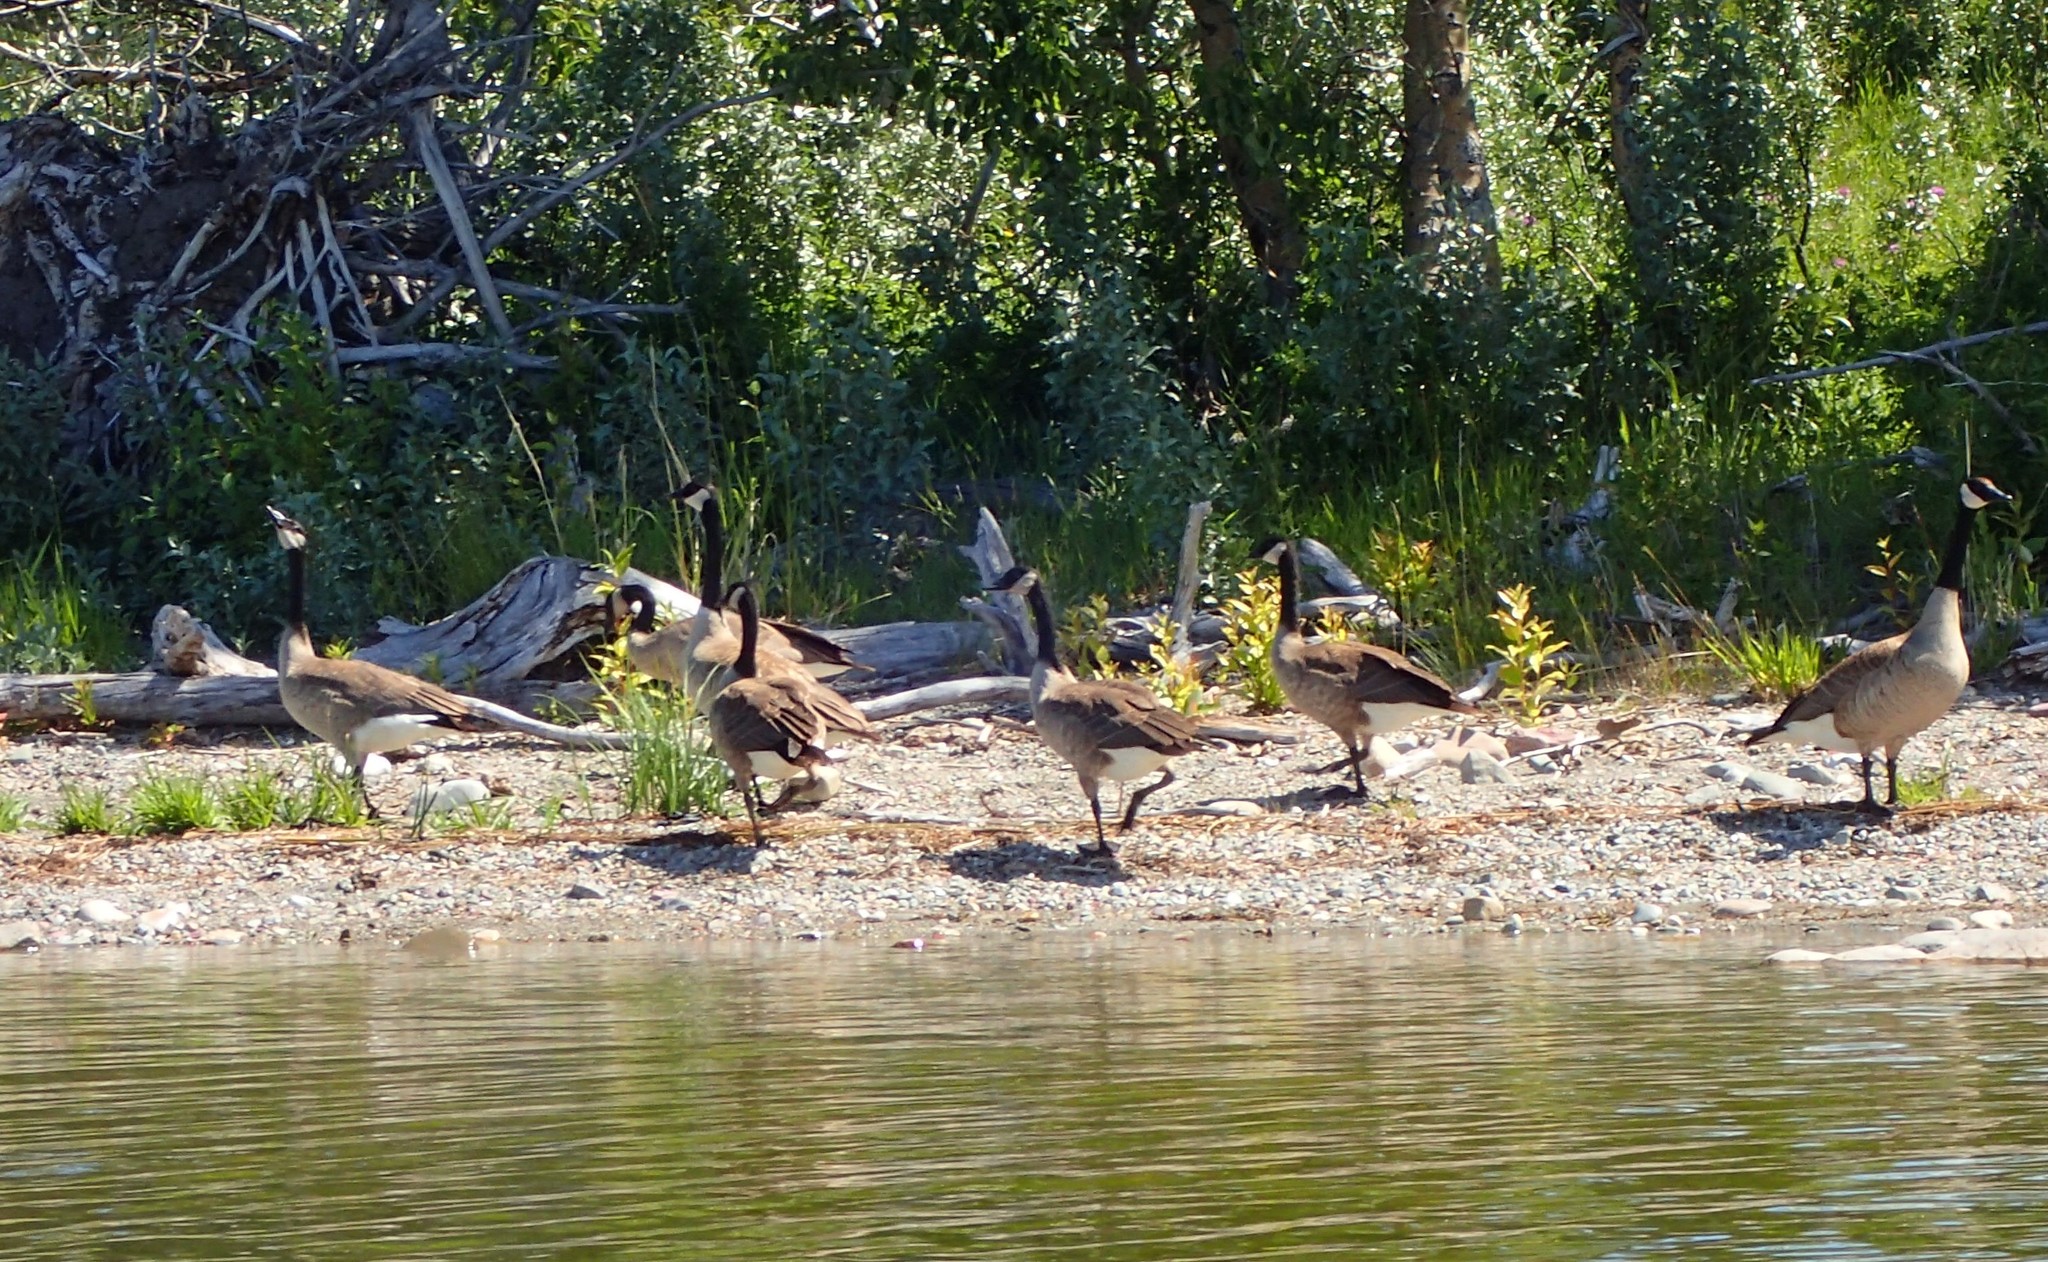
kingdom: Animalia
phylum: Chordata
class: Aves
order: Anseriformes
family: Anatidae
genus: Branta
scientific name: Branta canadensis
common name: Canada goose
